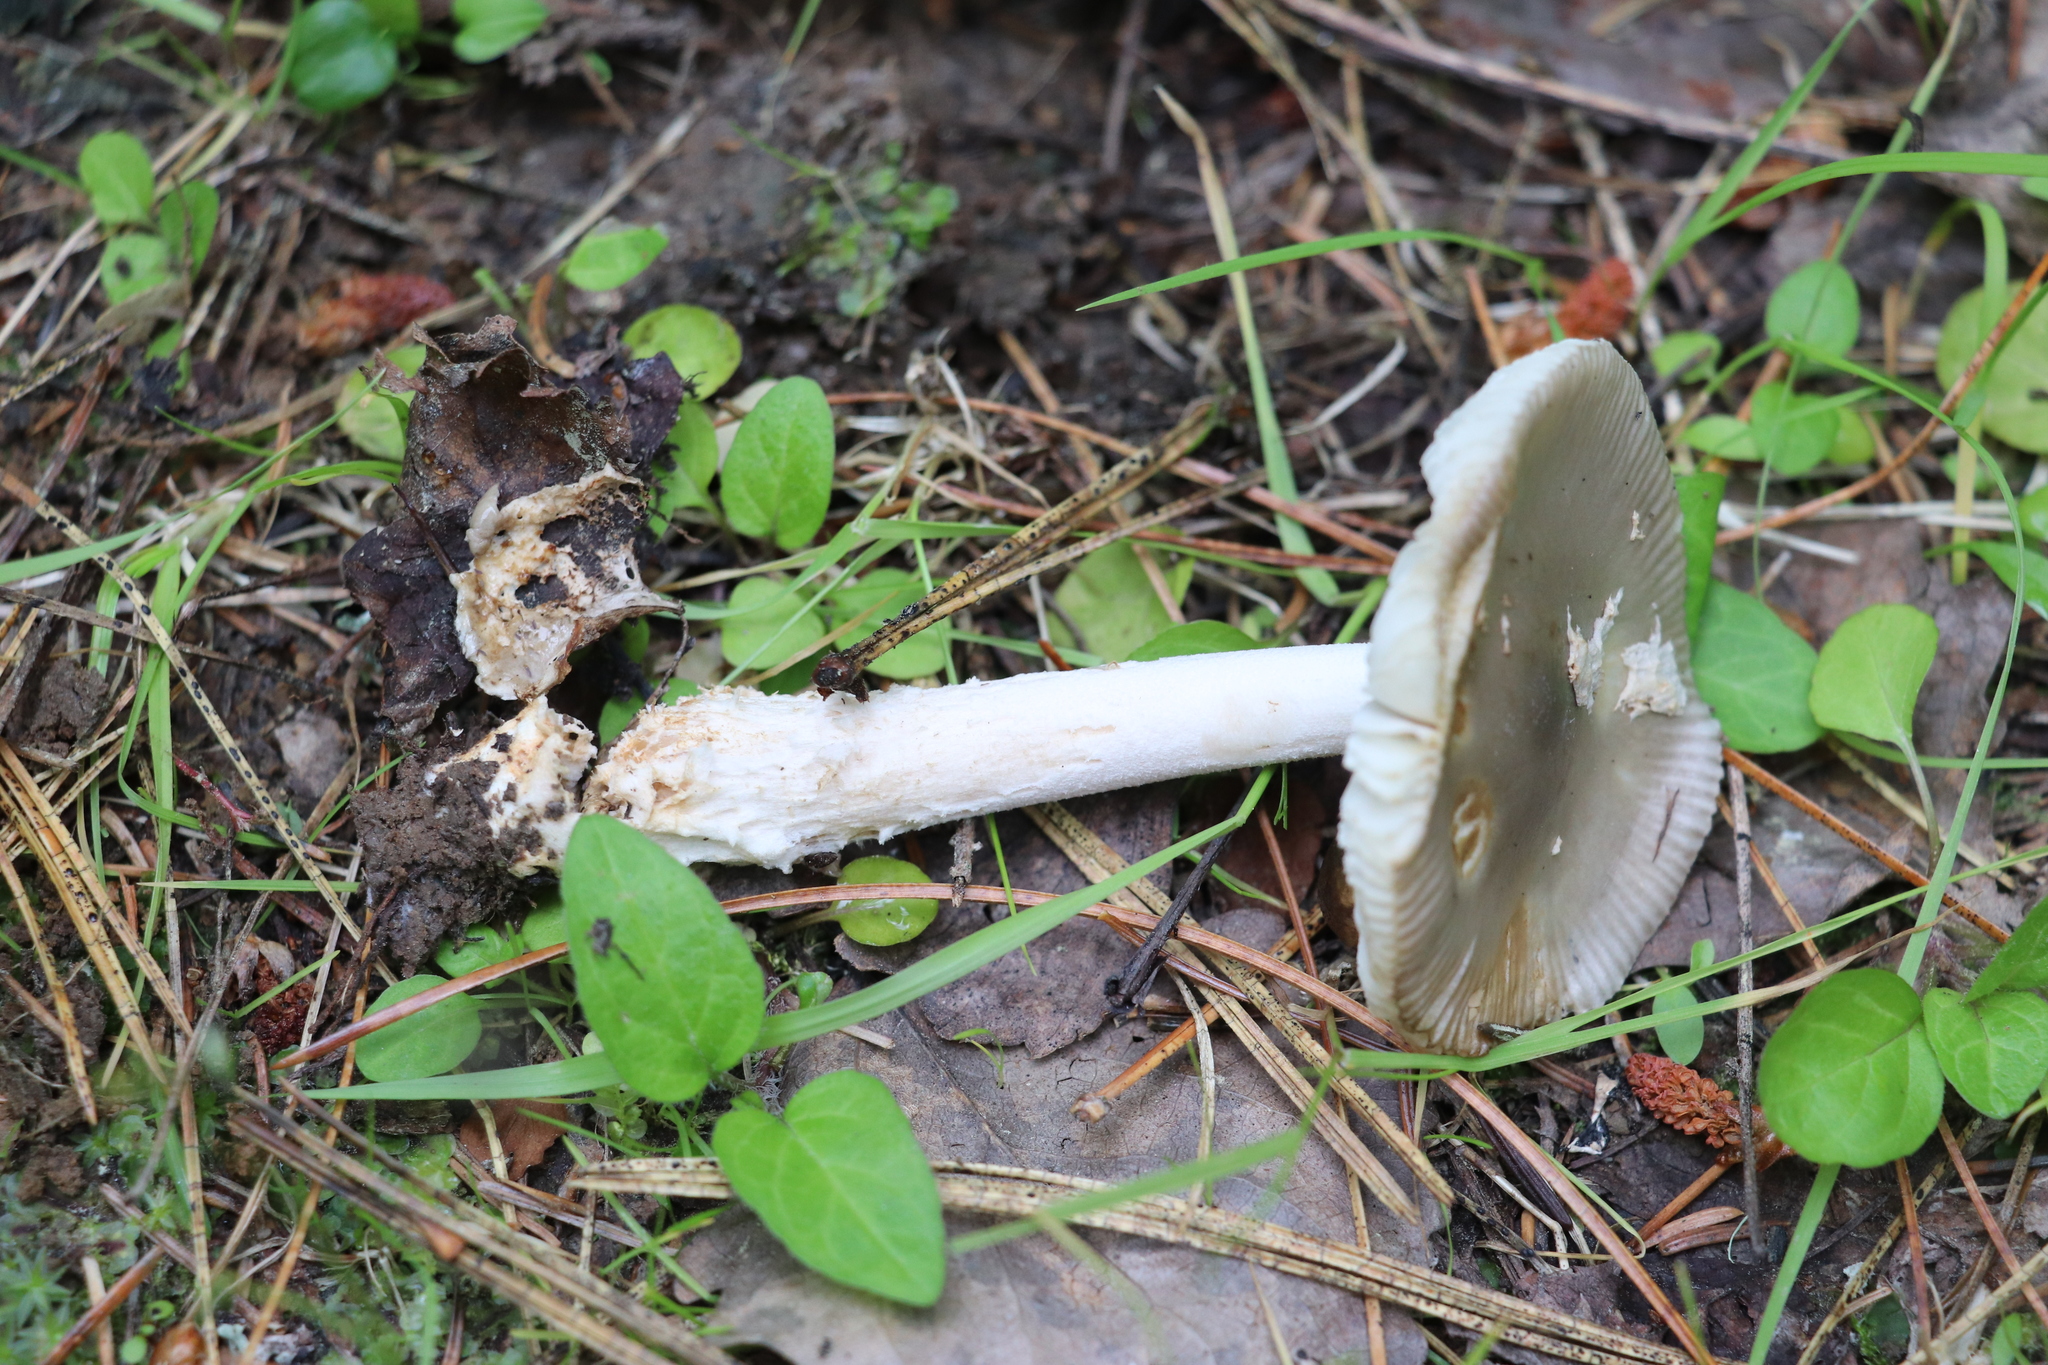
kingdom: Fungi
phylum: Basidiomycota
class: Agaricomycetes
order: Agaricales
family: Amanitaceae
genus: Amanita
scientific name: Amanita vaginata
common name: Grisette
